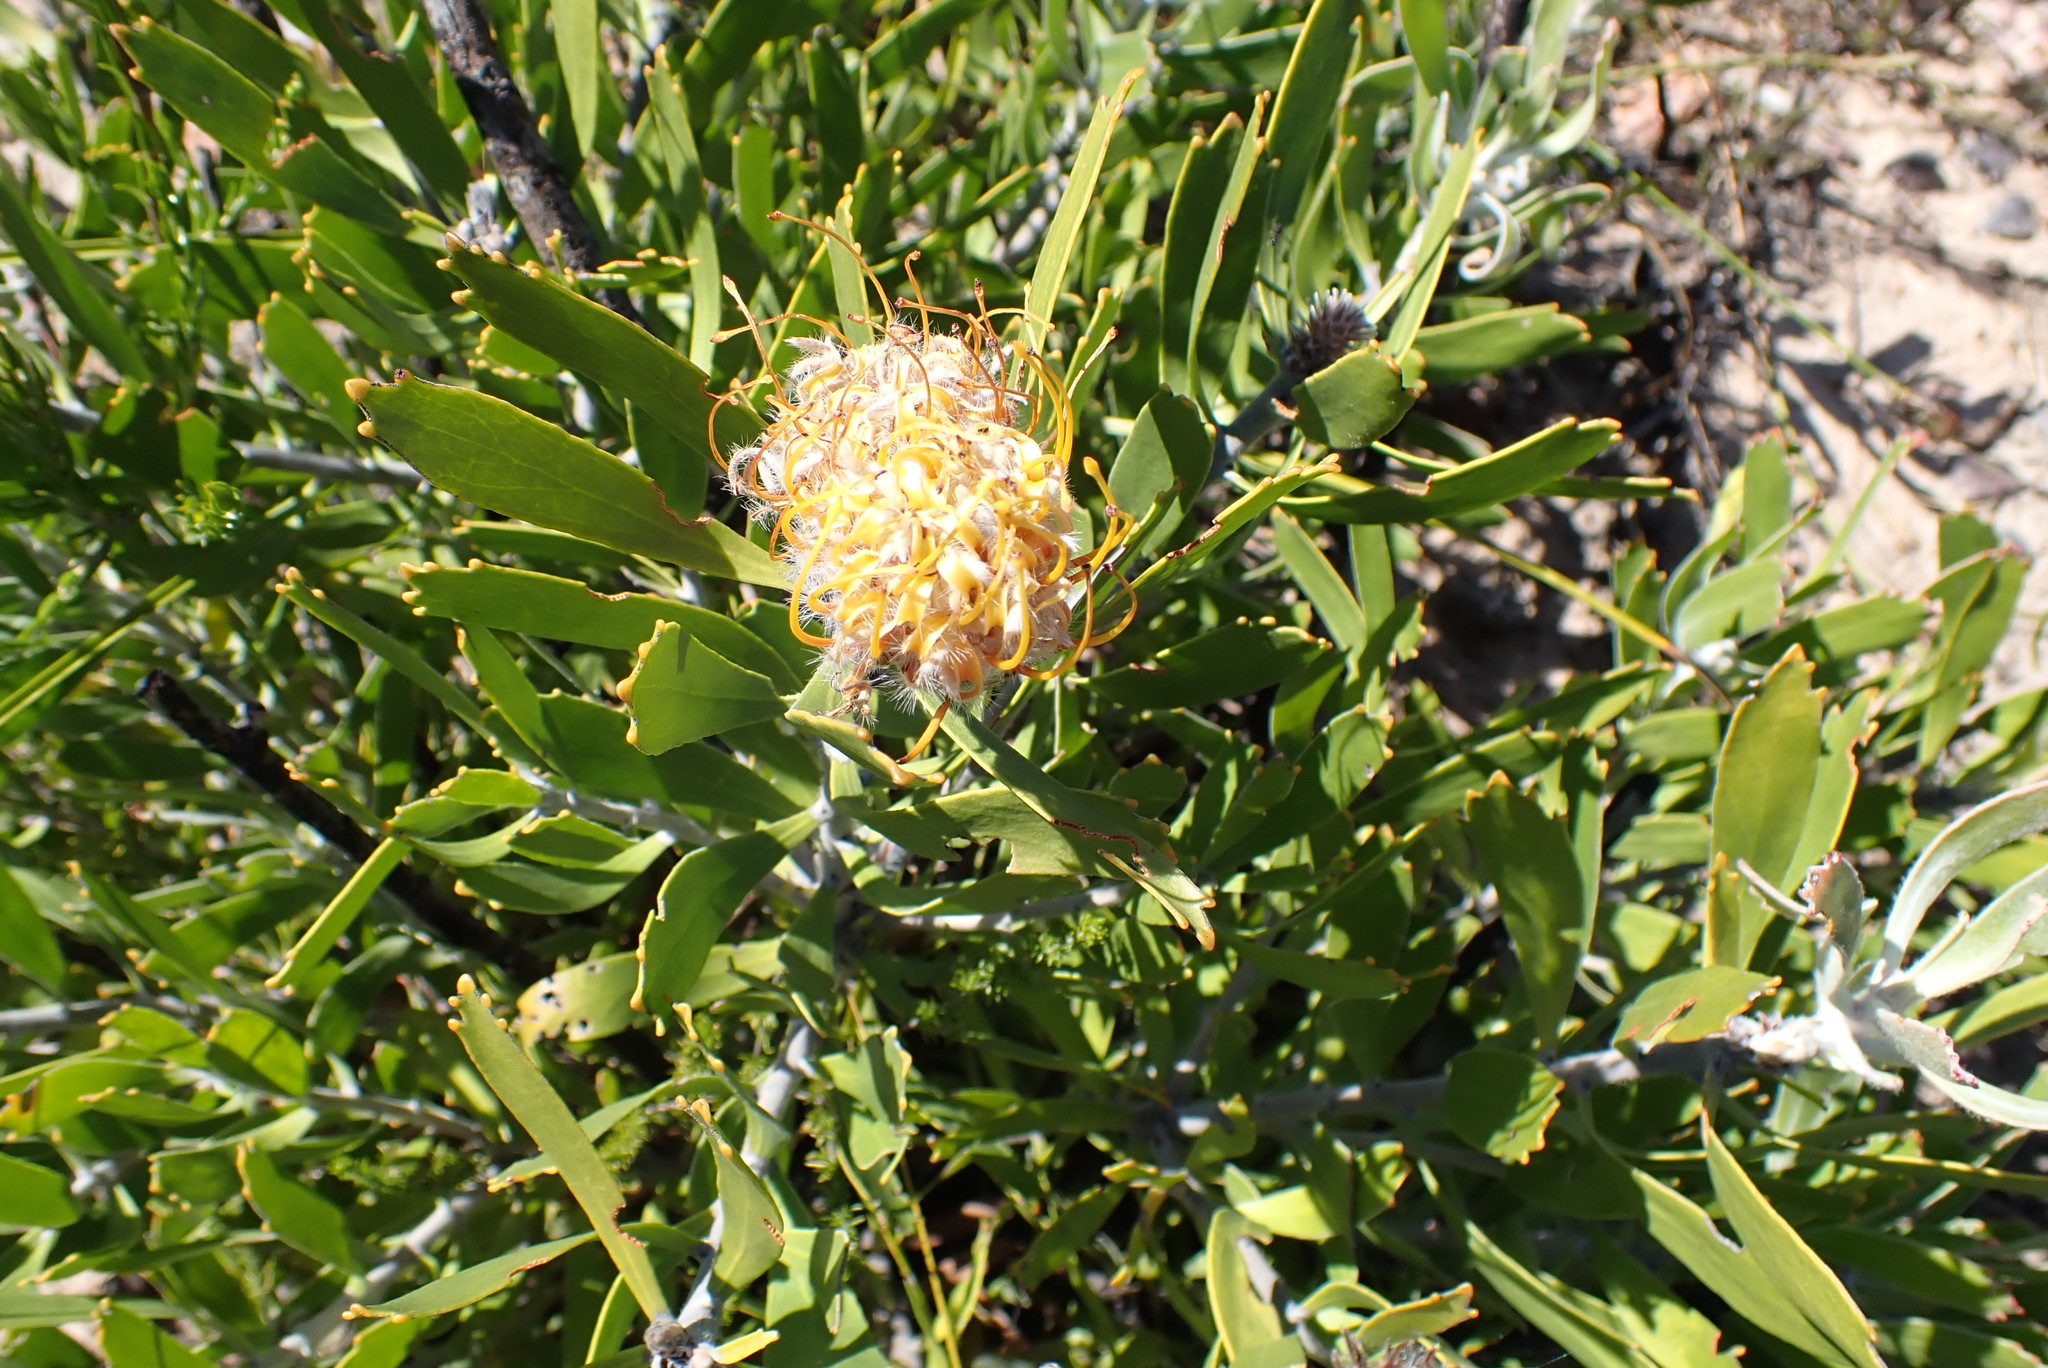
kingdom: Plantae
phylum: Tracheophyta
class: Magnoliopsida
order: Proteales
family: Proteaceae
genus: Leucospermum
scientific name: Leucospermum cuneiforme
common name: Common pincushion
